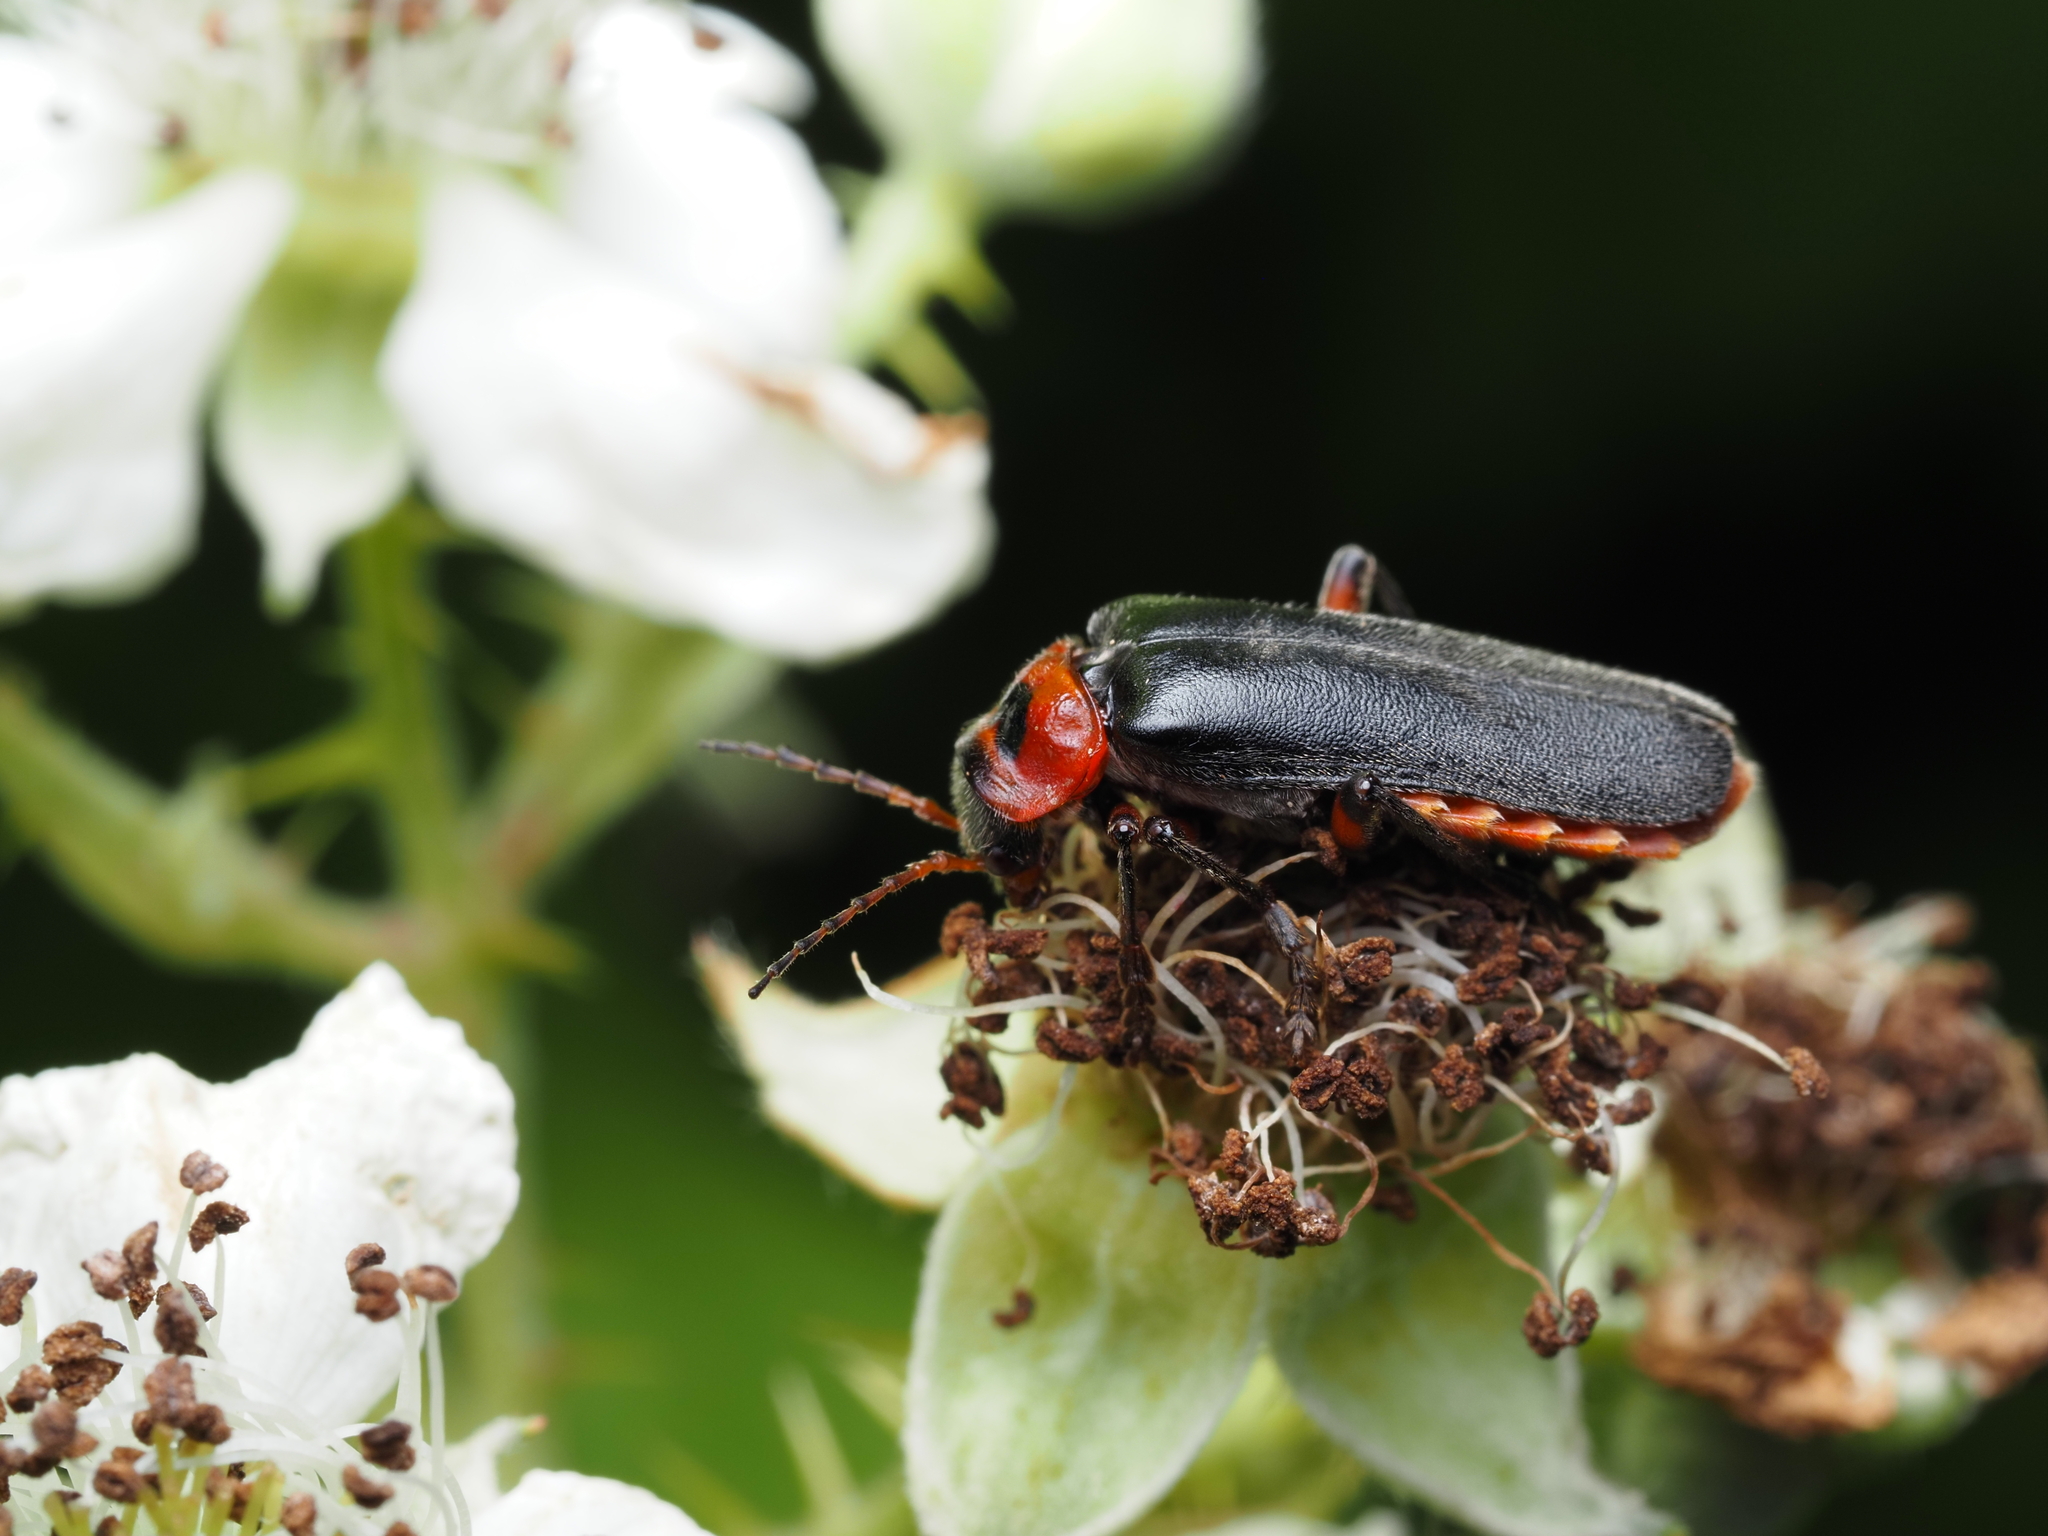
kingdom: Animalia
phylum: Arthropoda
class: Insecta
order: Coleoptera
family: Cantharidae
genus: Cantharis
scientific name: Cantharis rustica
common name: Soldier beetle
